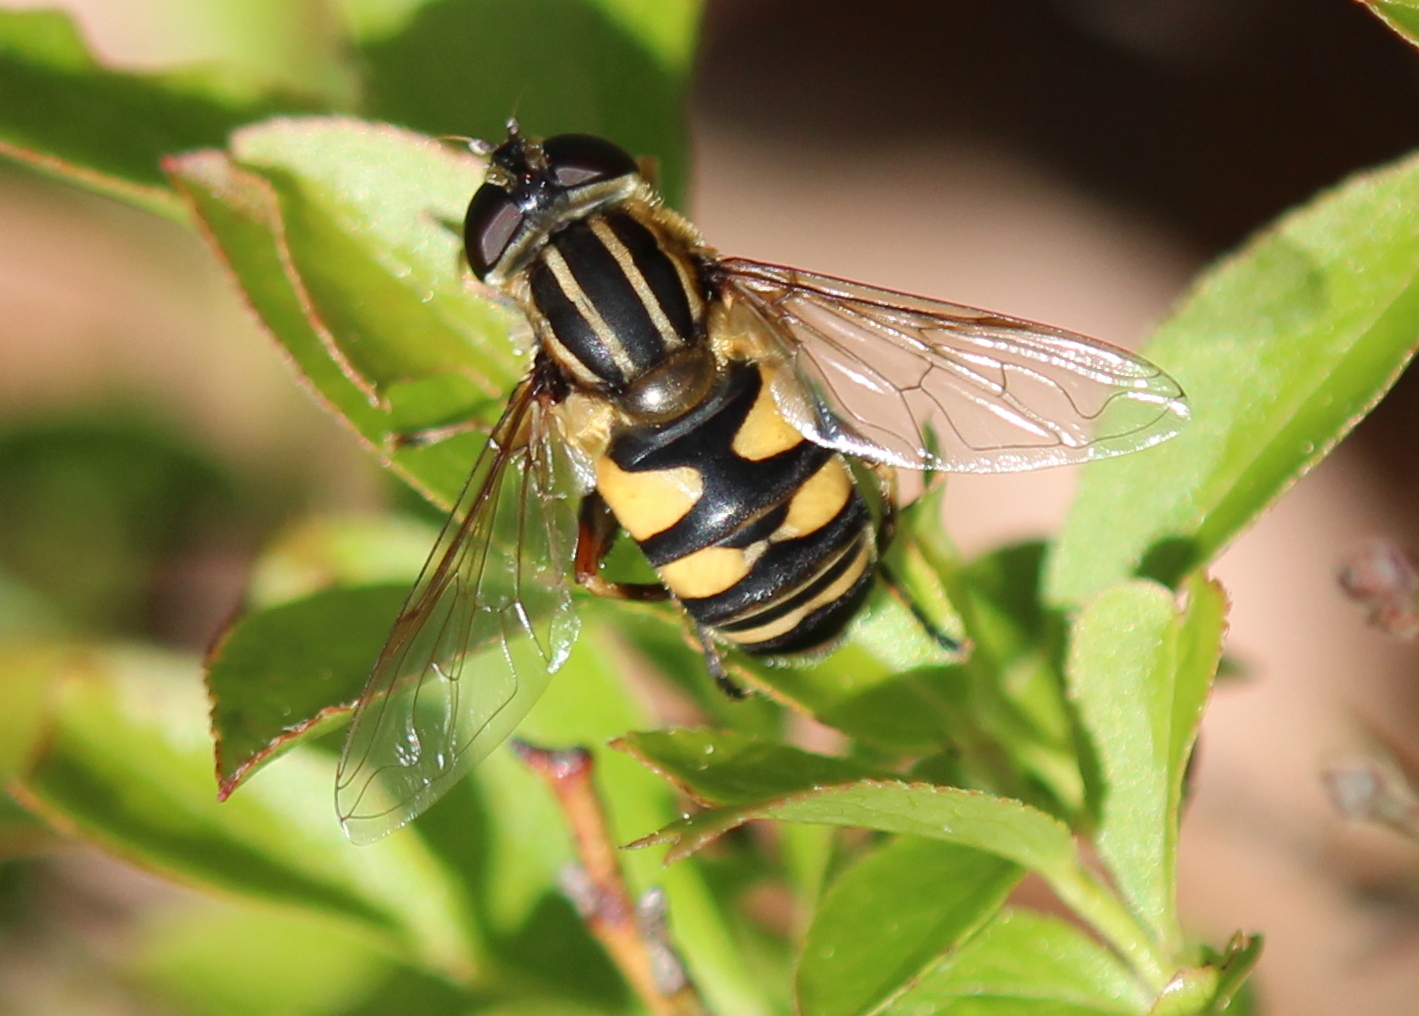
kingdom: Animalia
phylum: Arthropoda
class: Insecta
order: Diptera
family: Syrphidae
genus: Helophilus
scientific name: Helophilus fasciatus
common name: Narrow-headed marsh fly
